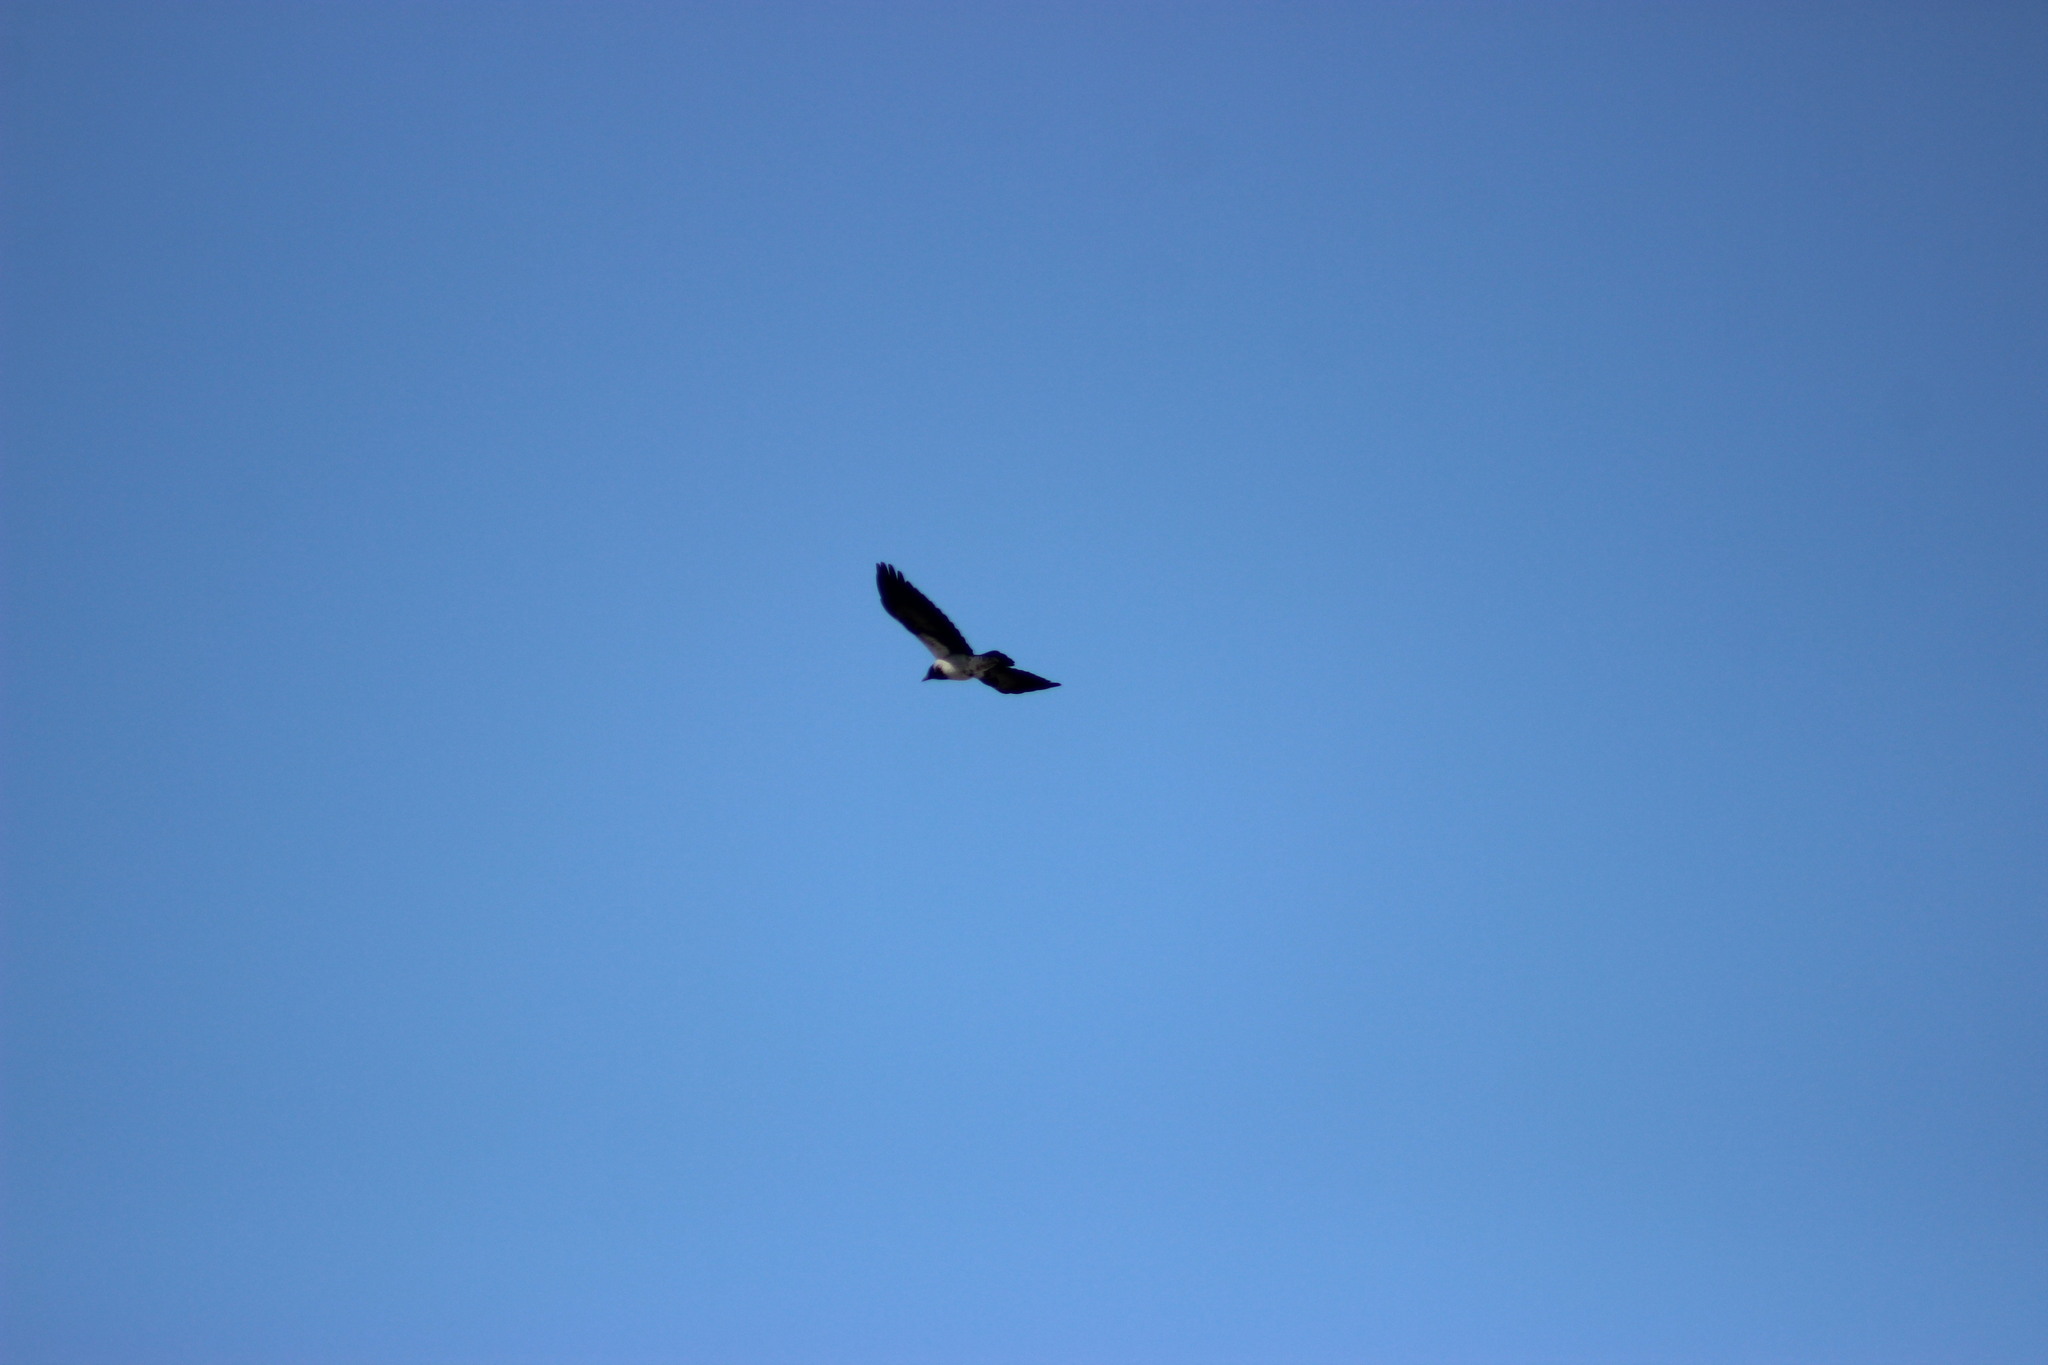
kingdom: Animalia
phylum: Chordata
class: Aves
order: Passeriformes
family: Corvidae
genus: Corvus
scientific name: Corvus cornix
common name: Hooded crow
